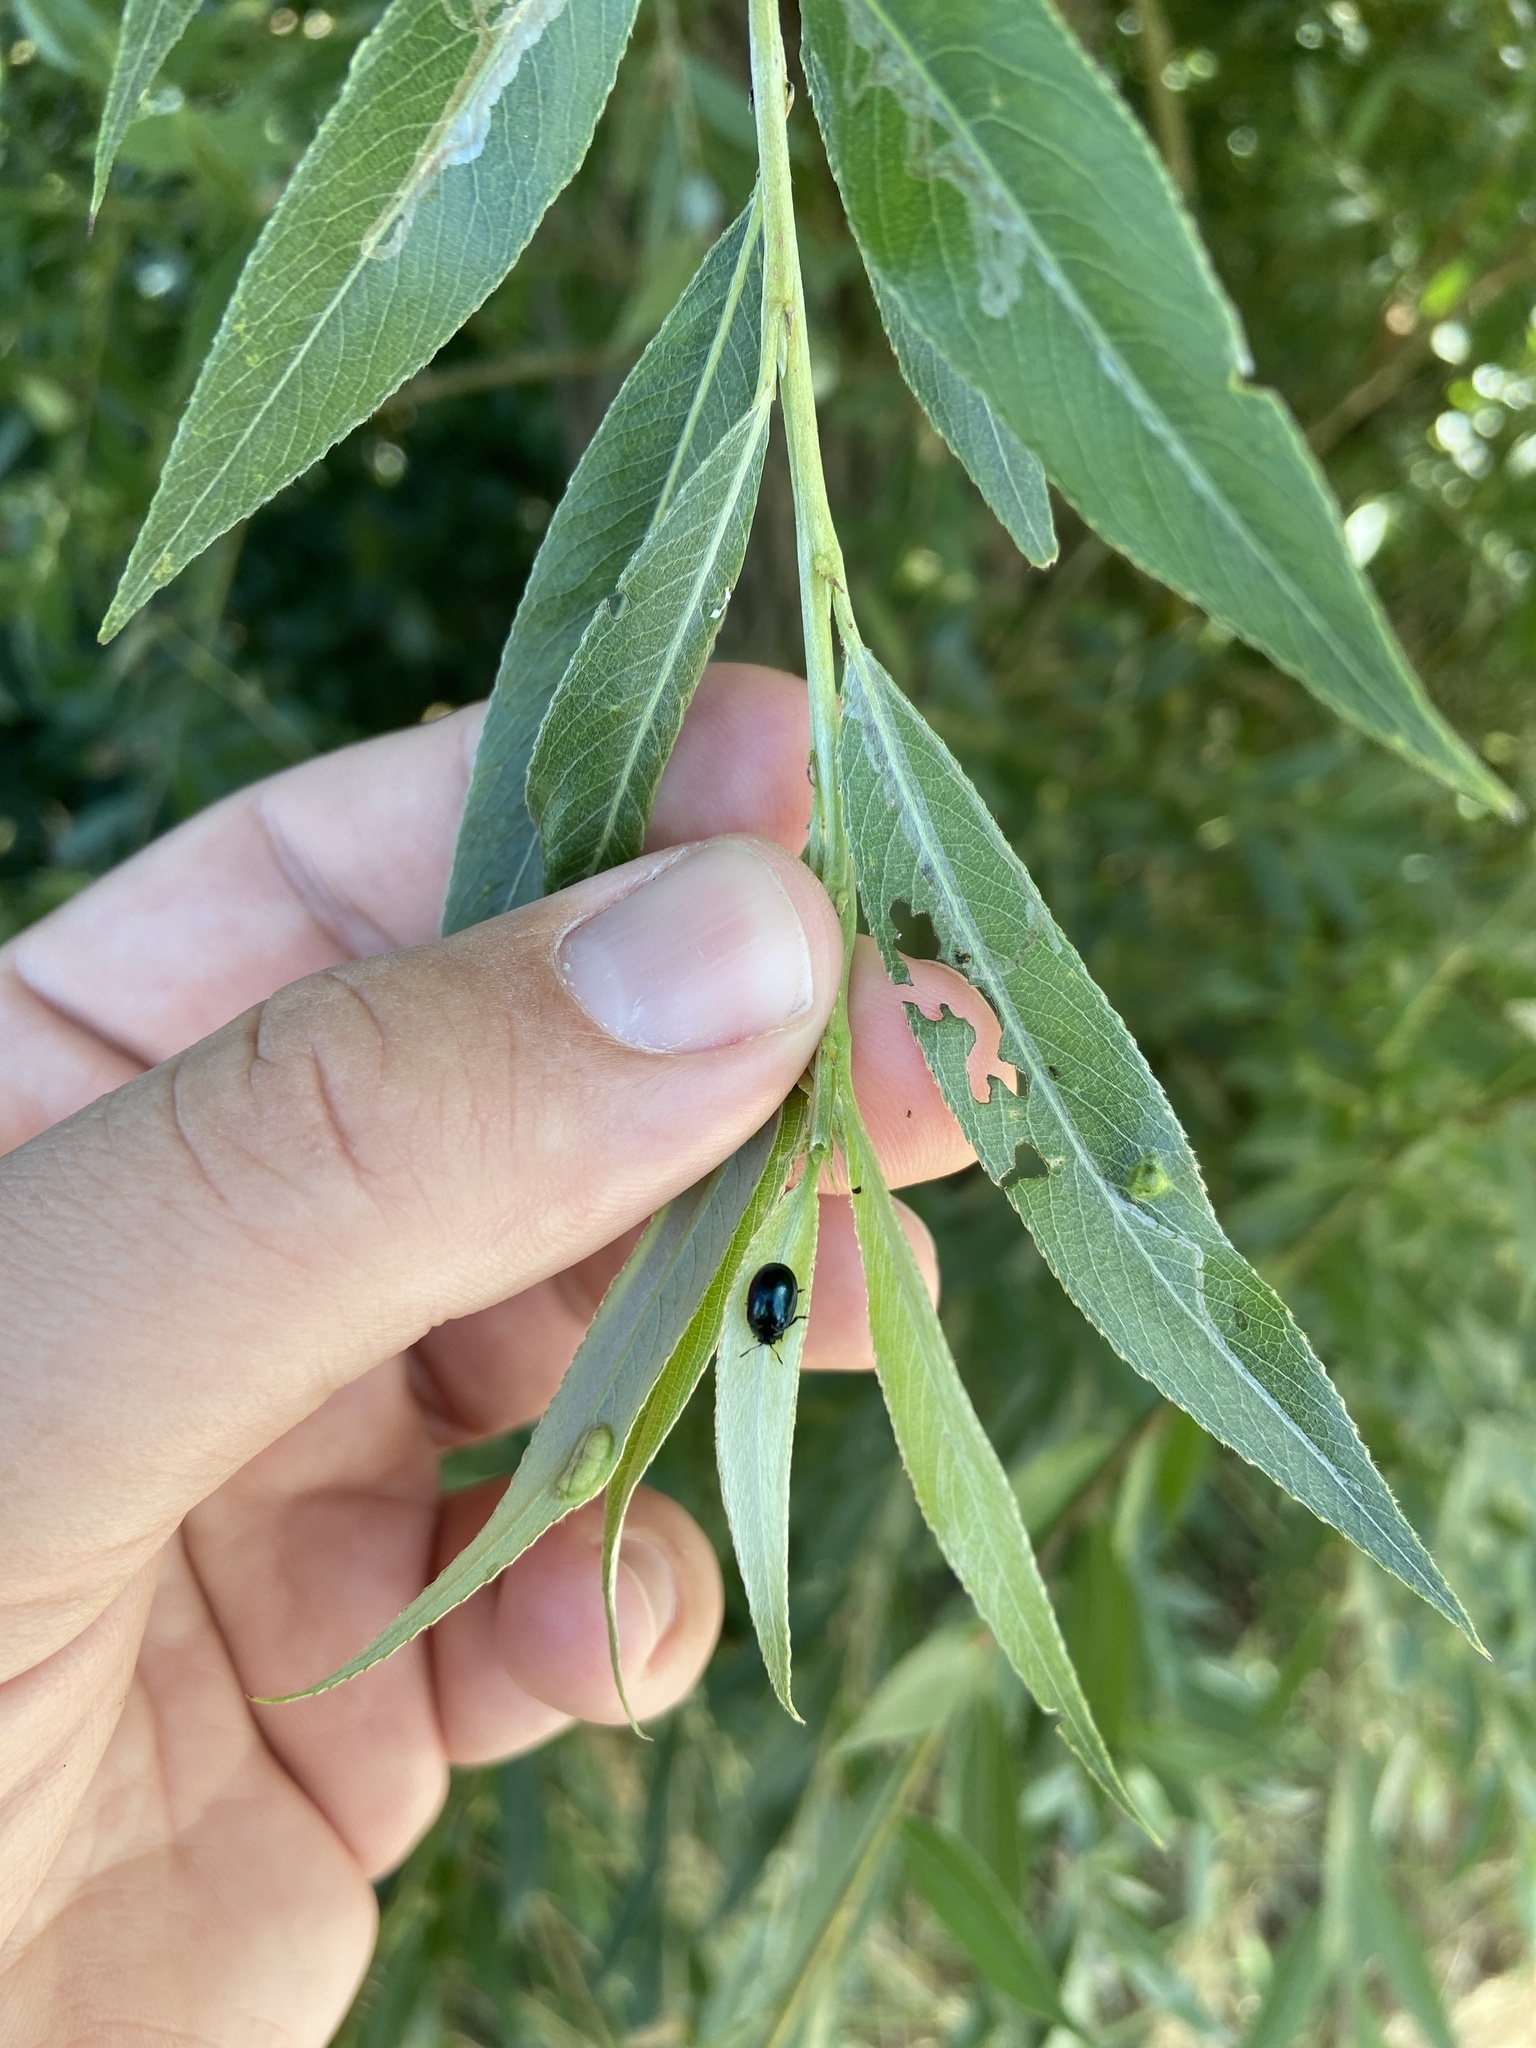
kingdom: Animalia
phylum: Arthropoda
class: Insecta
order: Coleoptera
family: Chrysomelidae
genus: Plagiodera
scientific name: Plagiodera versicolora
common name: Imported willow leaf beetle
